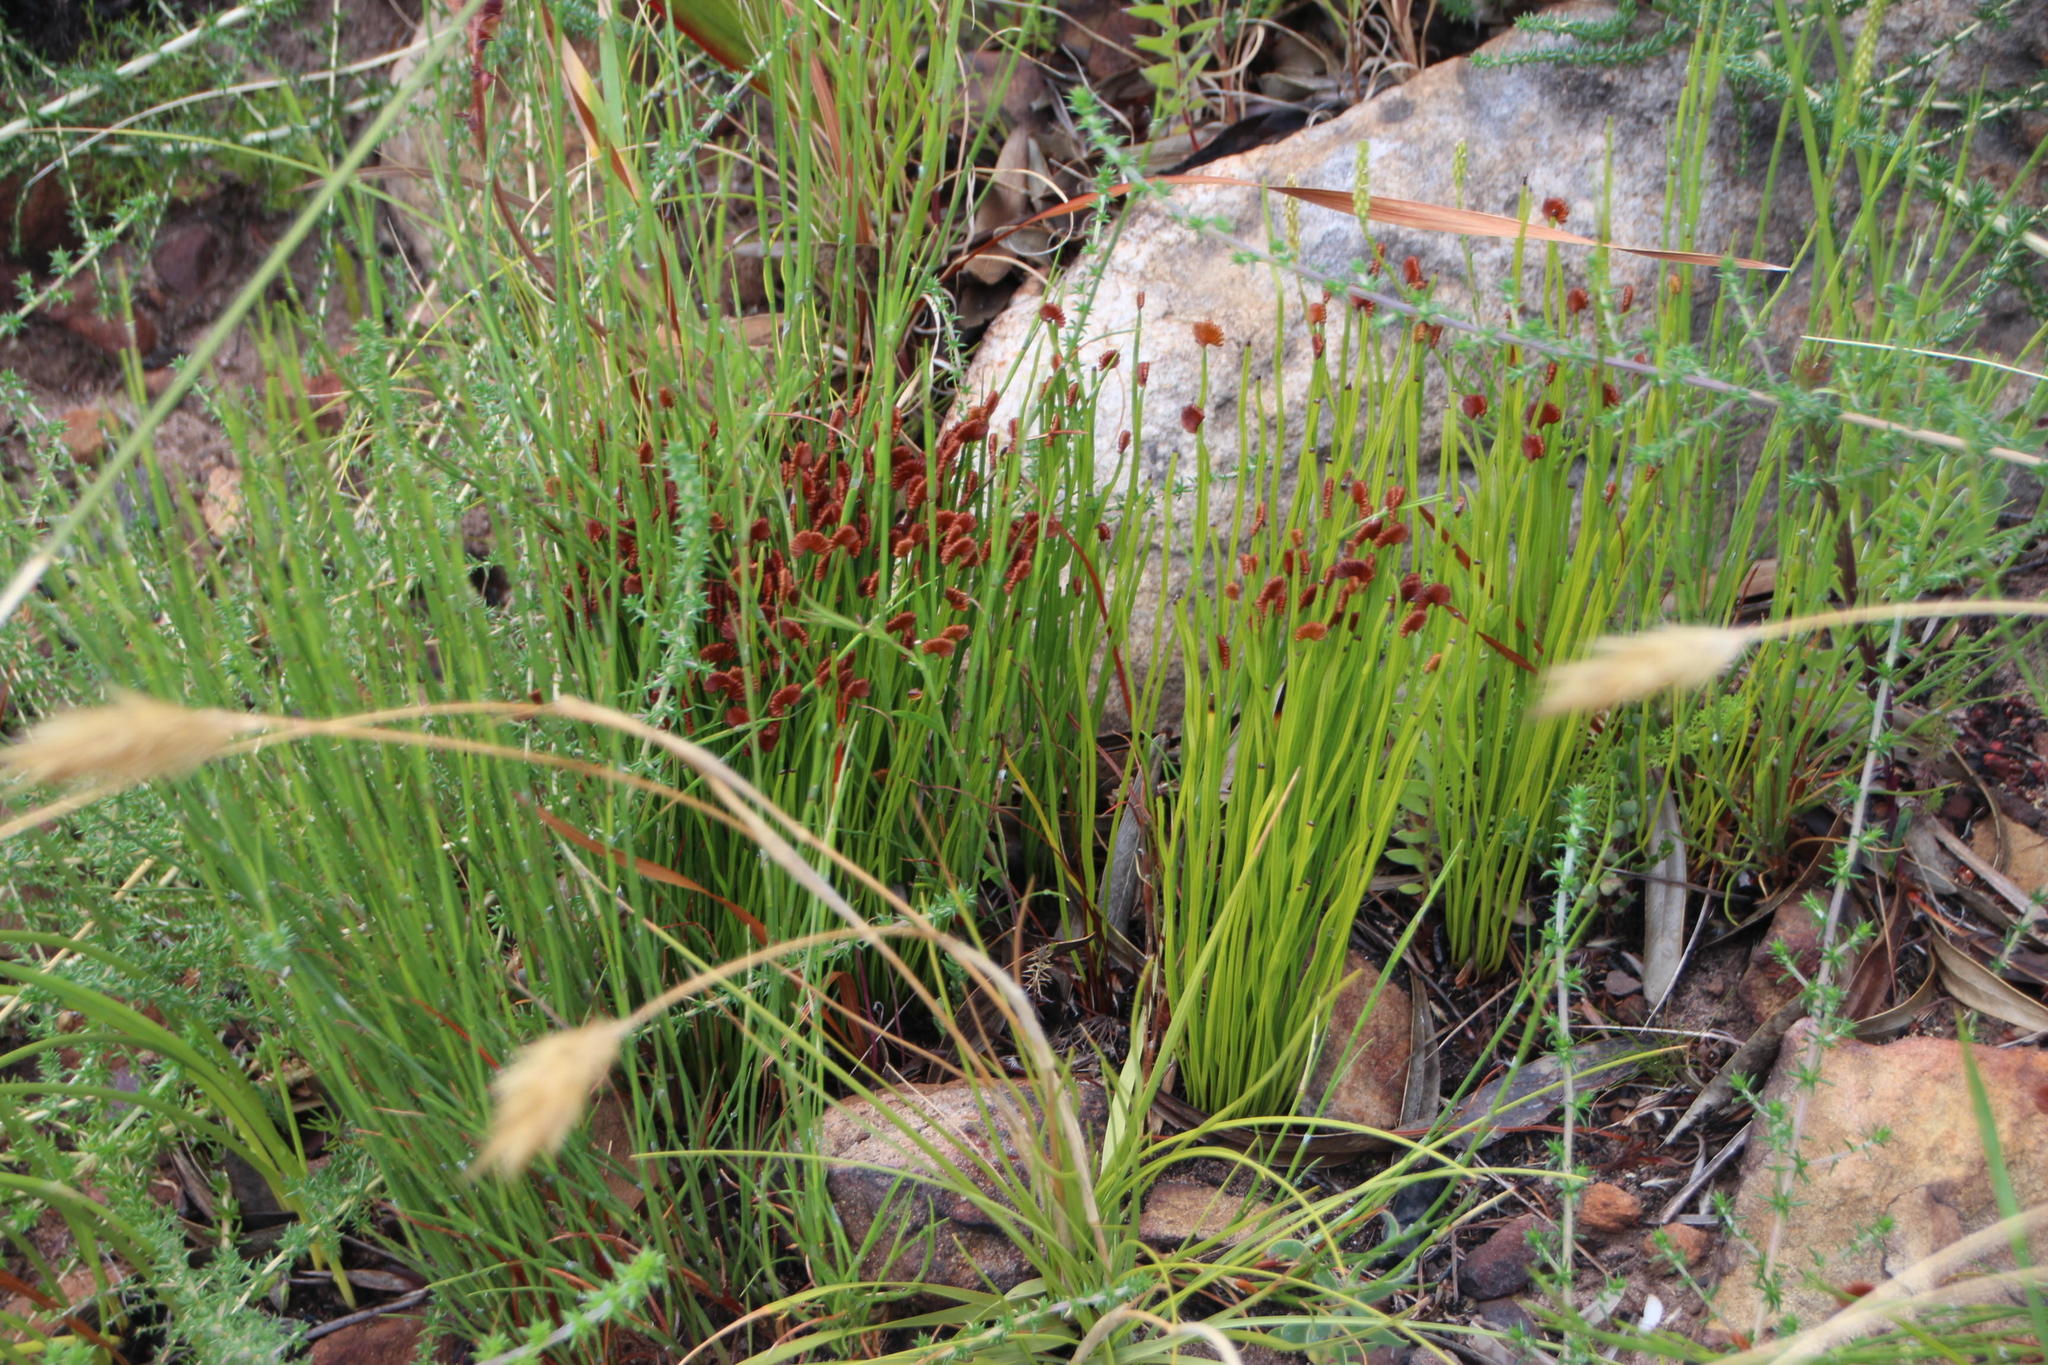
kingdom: Plantae
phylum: Tracheophyta
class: Polypodiopsida
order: Schizaeales
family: Schizaeaceae
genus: Schizaea
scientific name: Schizaea pectinata
